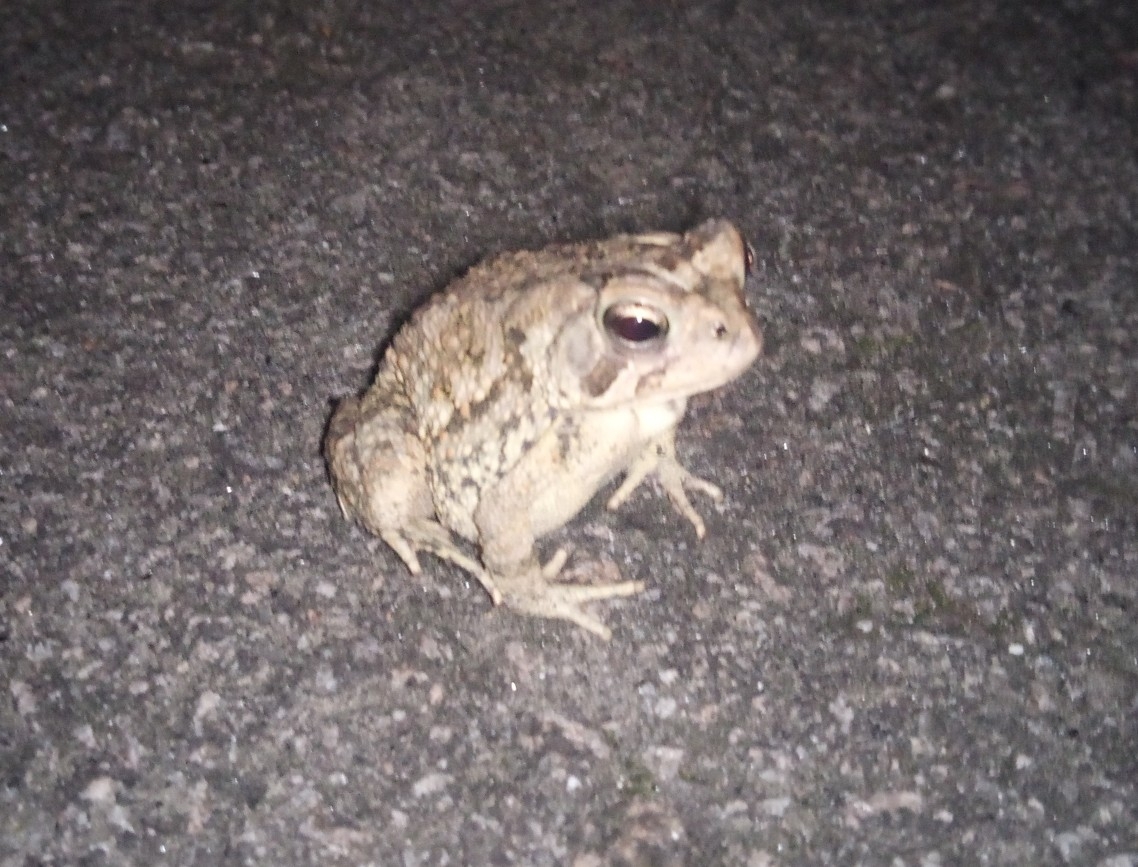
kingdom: Animalia
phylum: Chordata
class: Amphibia
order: Anura
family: Bufonidae
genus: Anaxyrus
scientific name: Anaxyrus fowleri
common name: Fowler's toad
